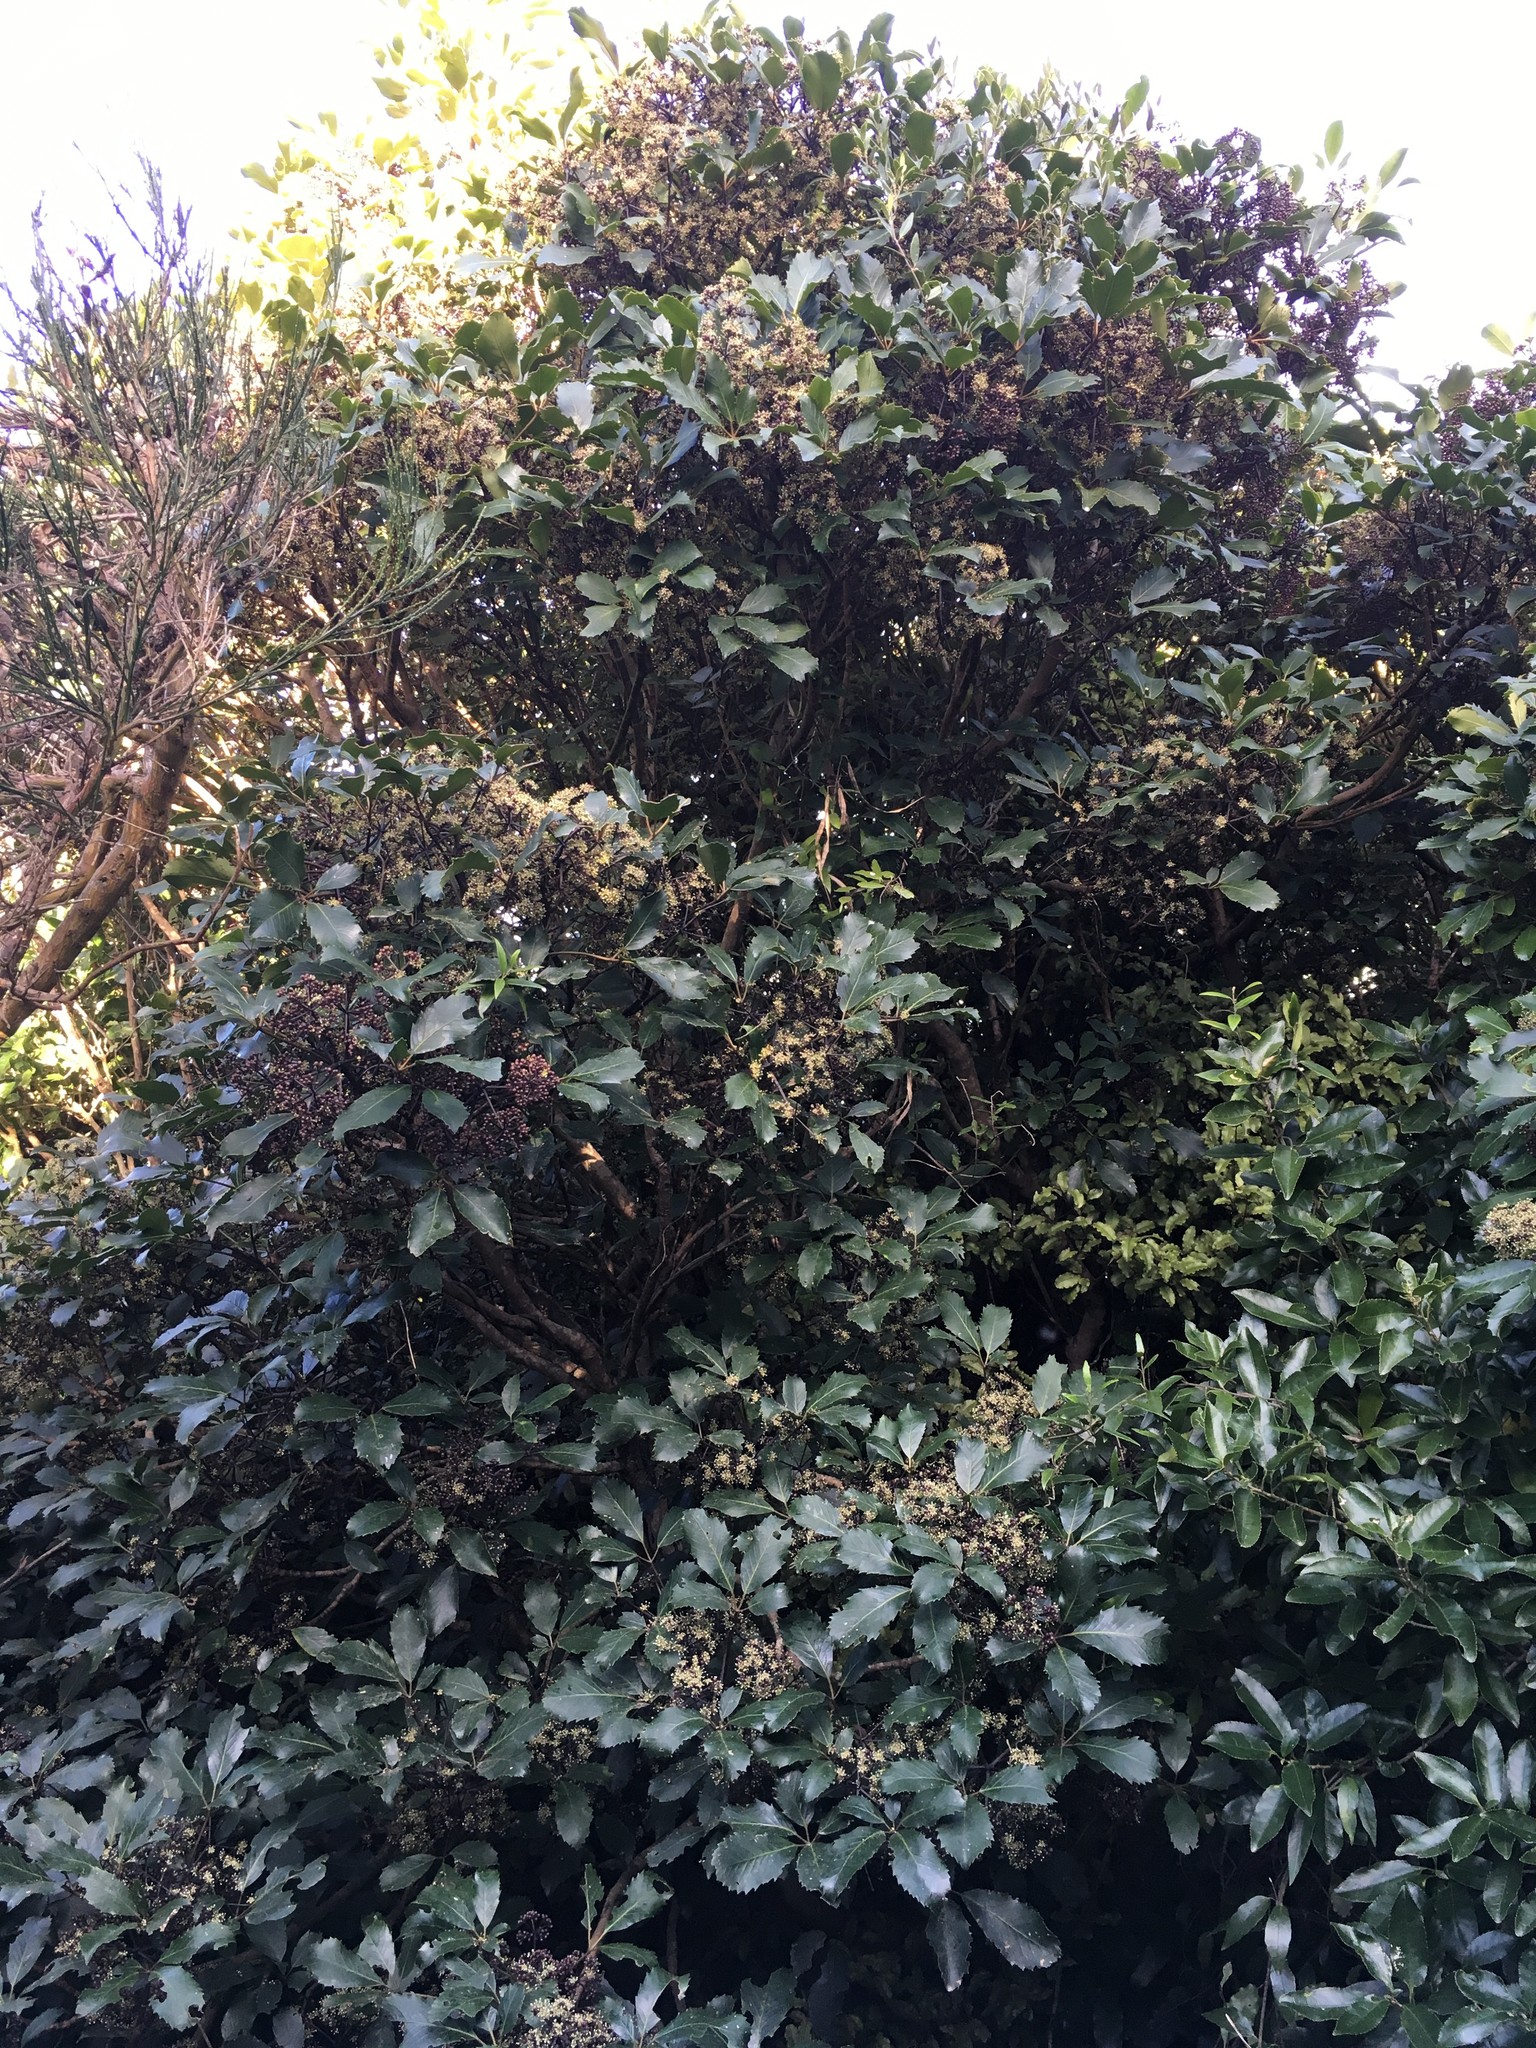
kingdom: Plantae
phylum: Tracheophyta
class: Magnoliopsida
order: Apiales
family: Araliaceae
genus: Neopanax
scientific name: Neopanax arboreus
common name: Five-fingers
